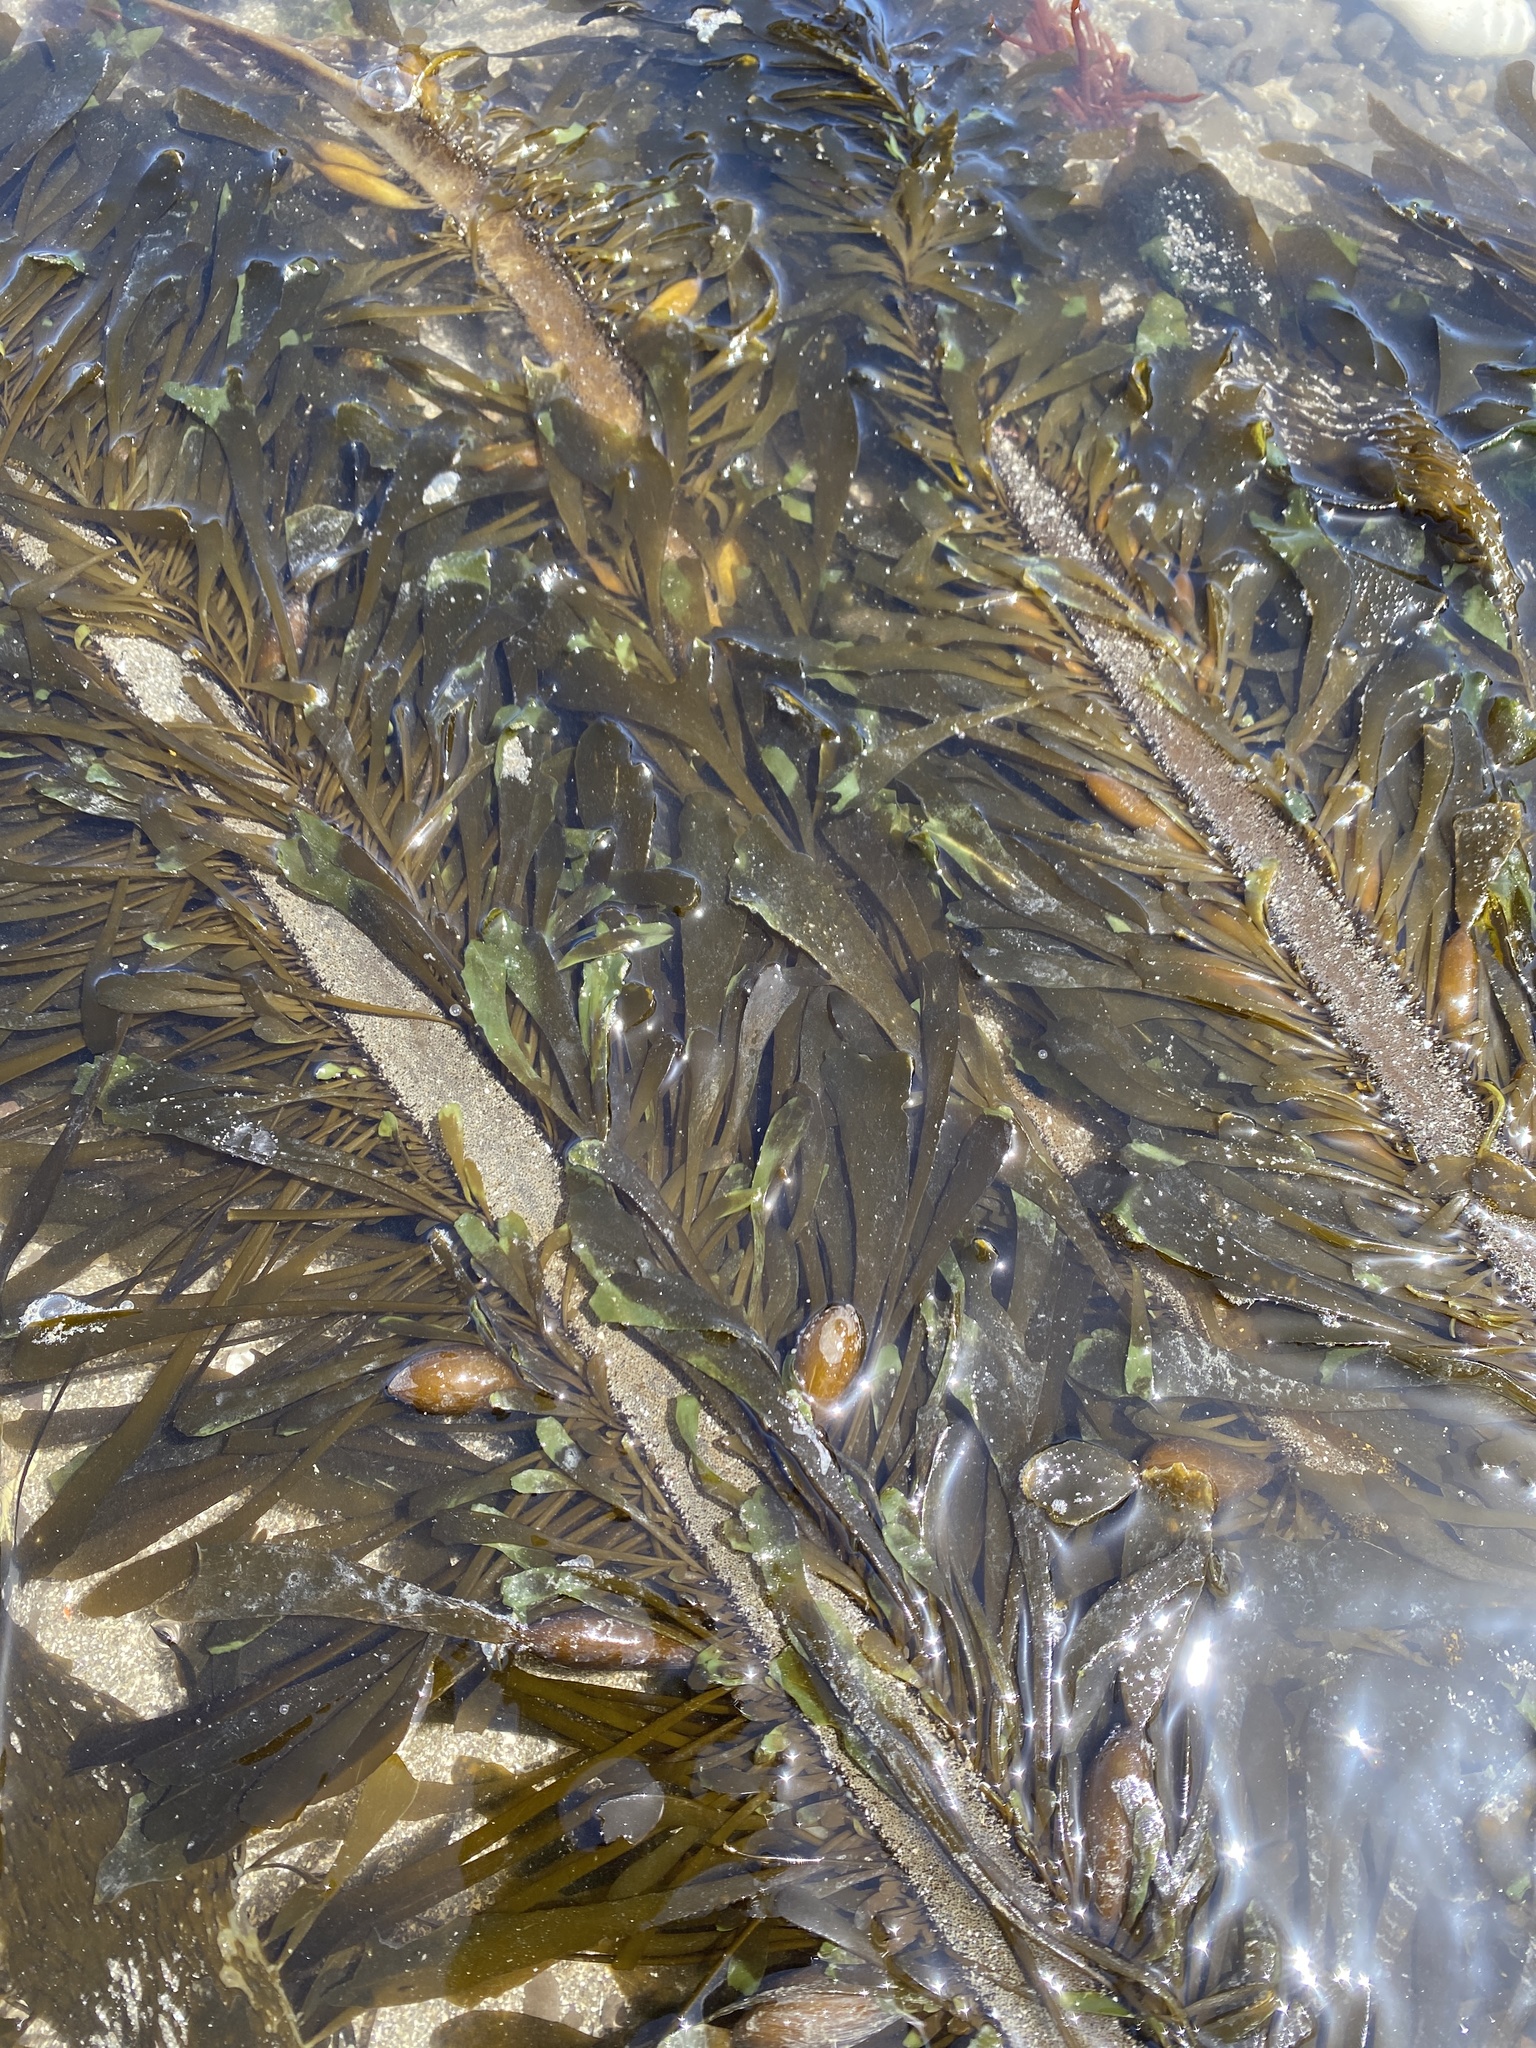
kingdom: Chromista
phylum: Ochrophyta
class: Phaeophyceae
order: Laminariales
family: Lessoniaceae
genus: Egregia
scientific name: Egregia menziesii
